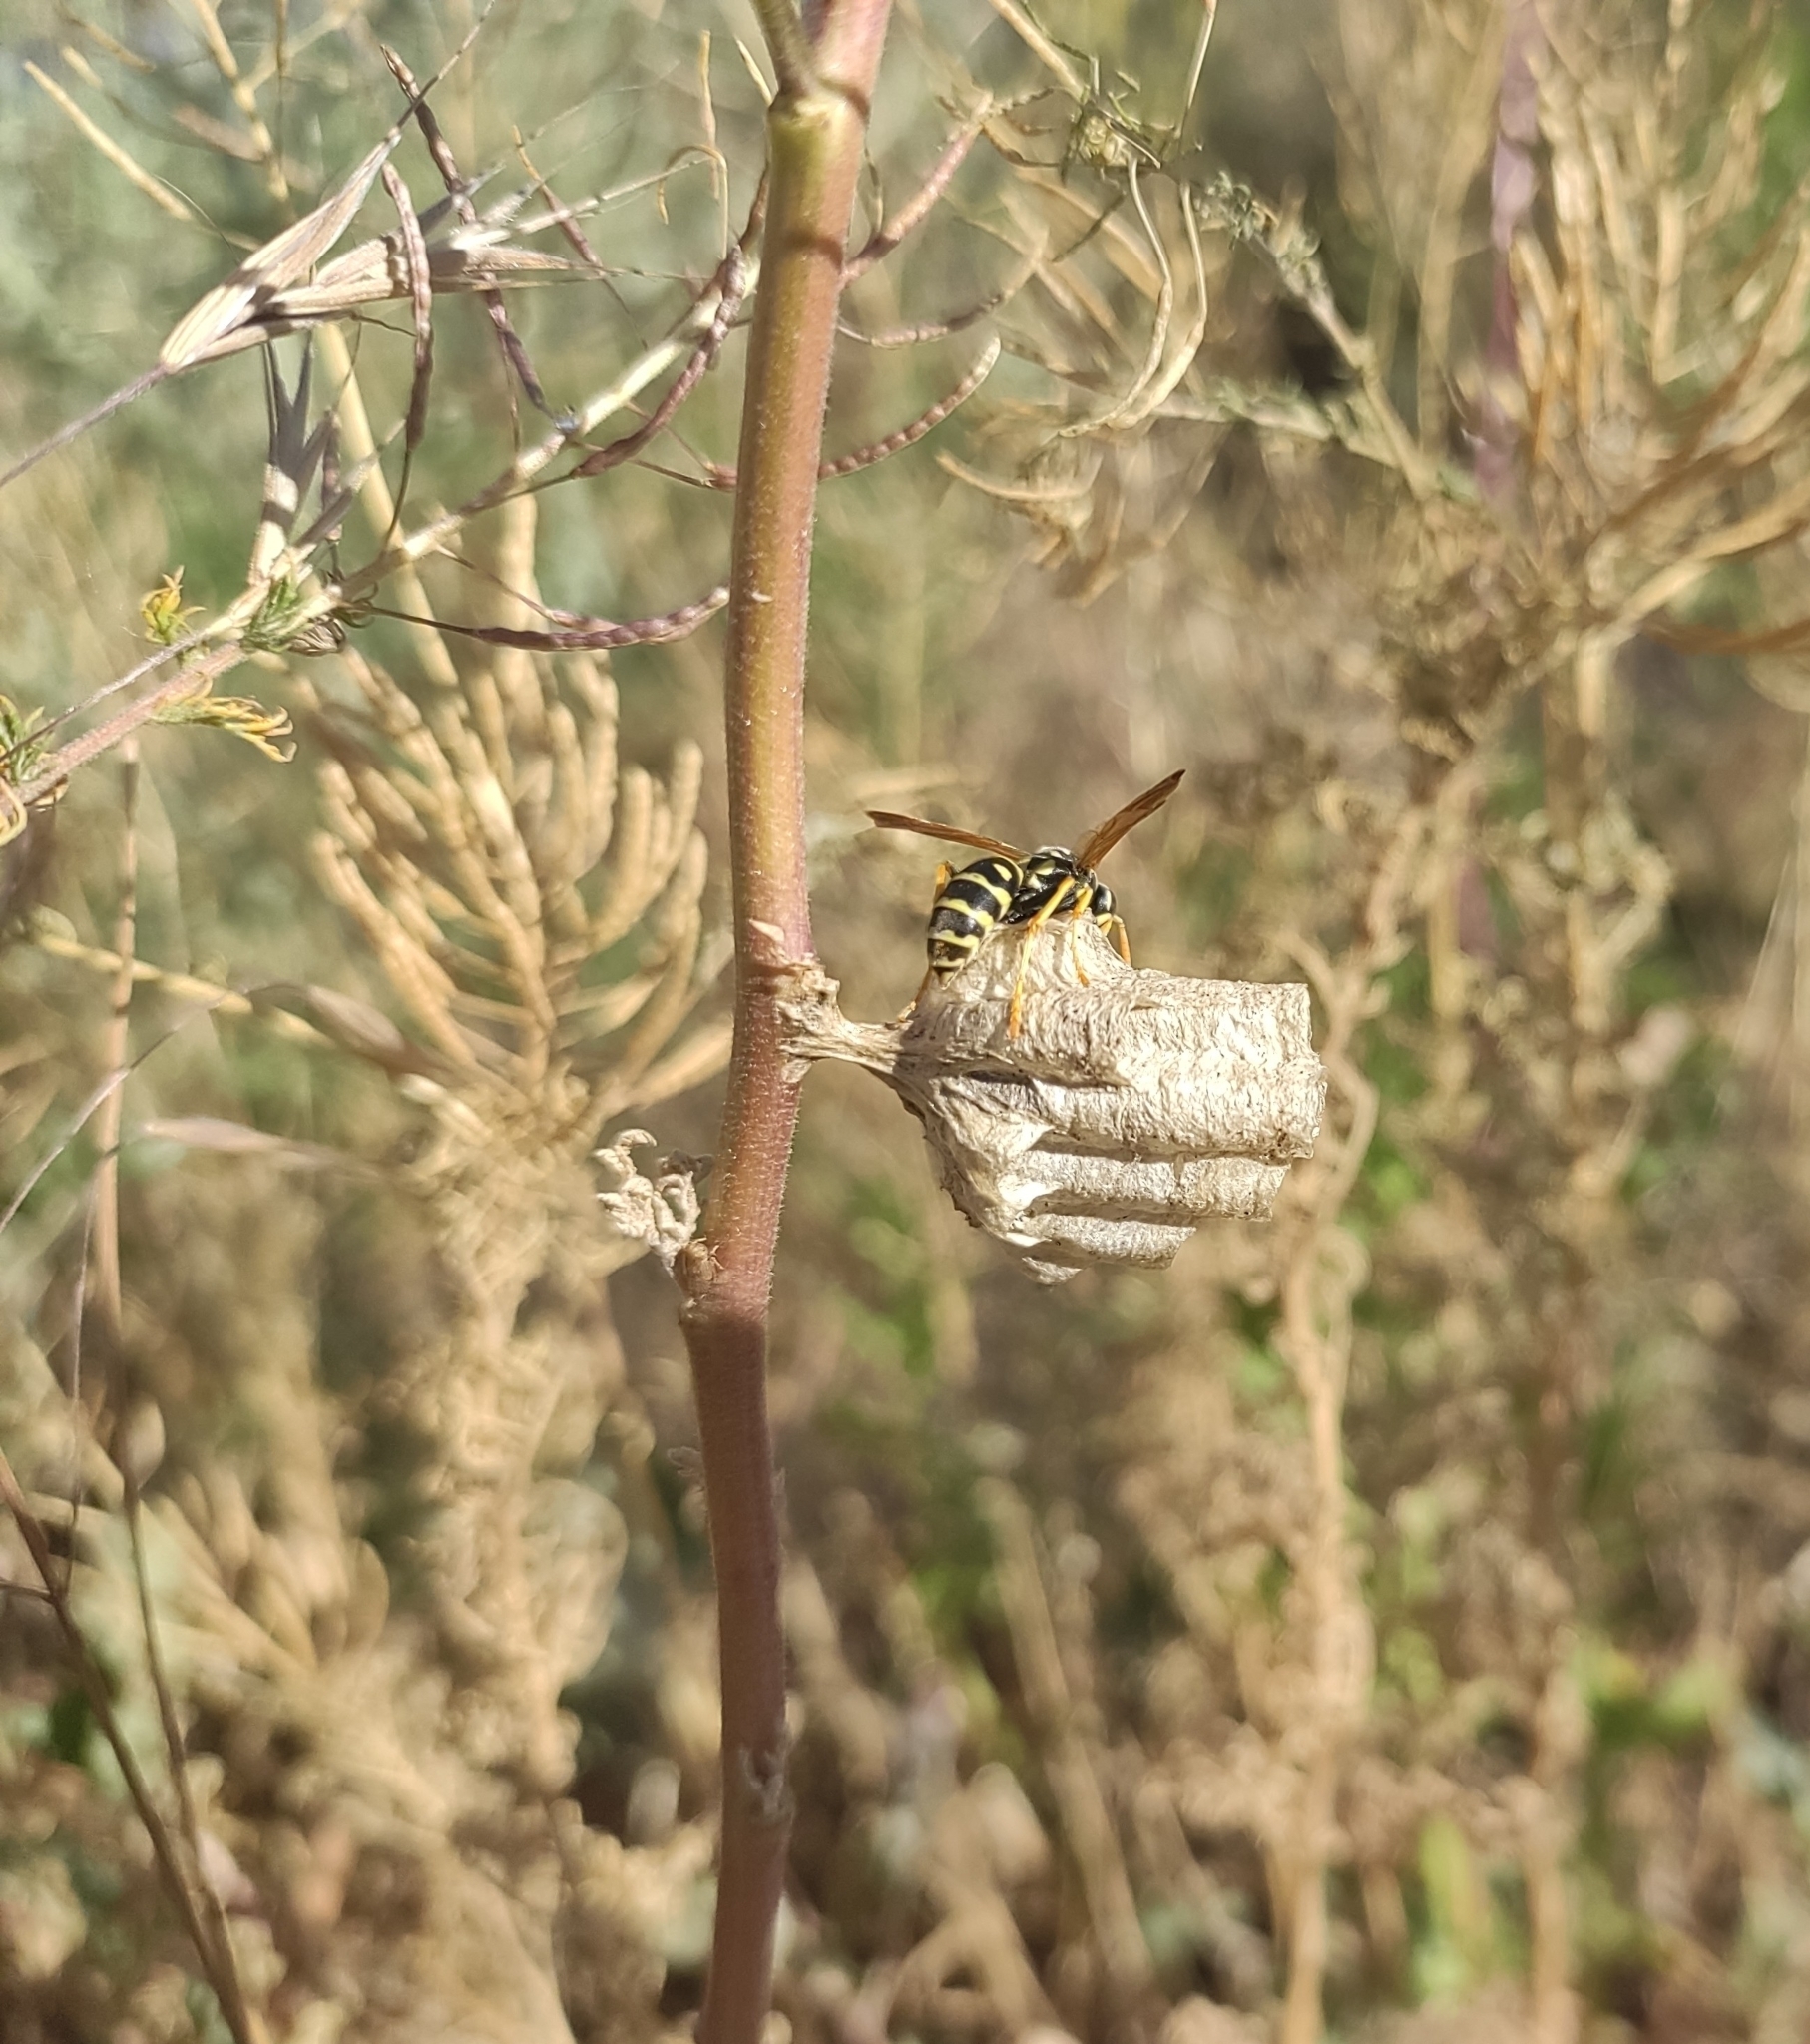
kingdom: Animalia
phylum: Arthropoda
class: Insecta
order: Hymenoptera
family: Eumenidae
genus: Polistes
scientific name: Polistes dominula
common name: Paper wasp
